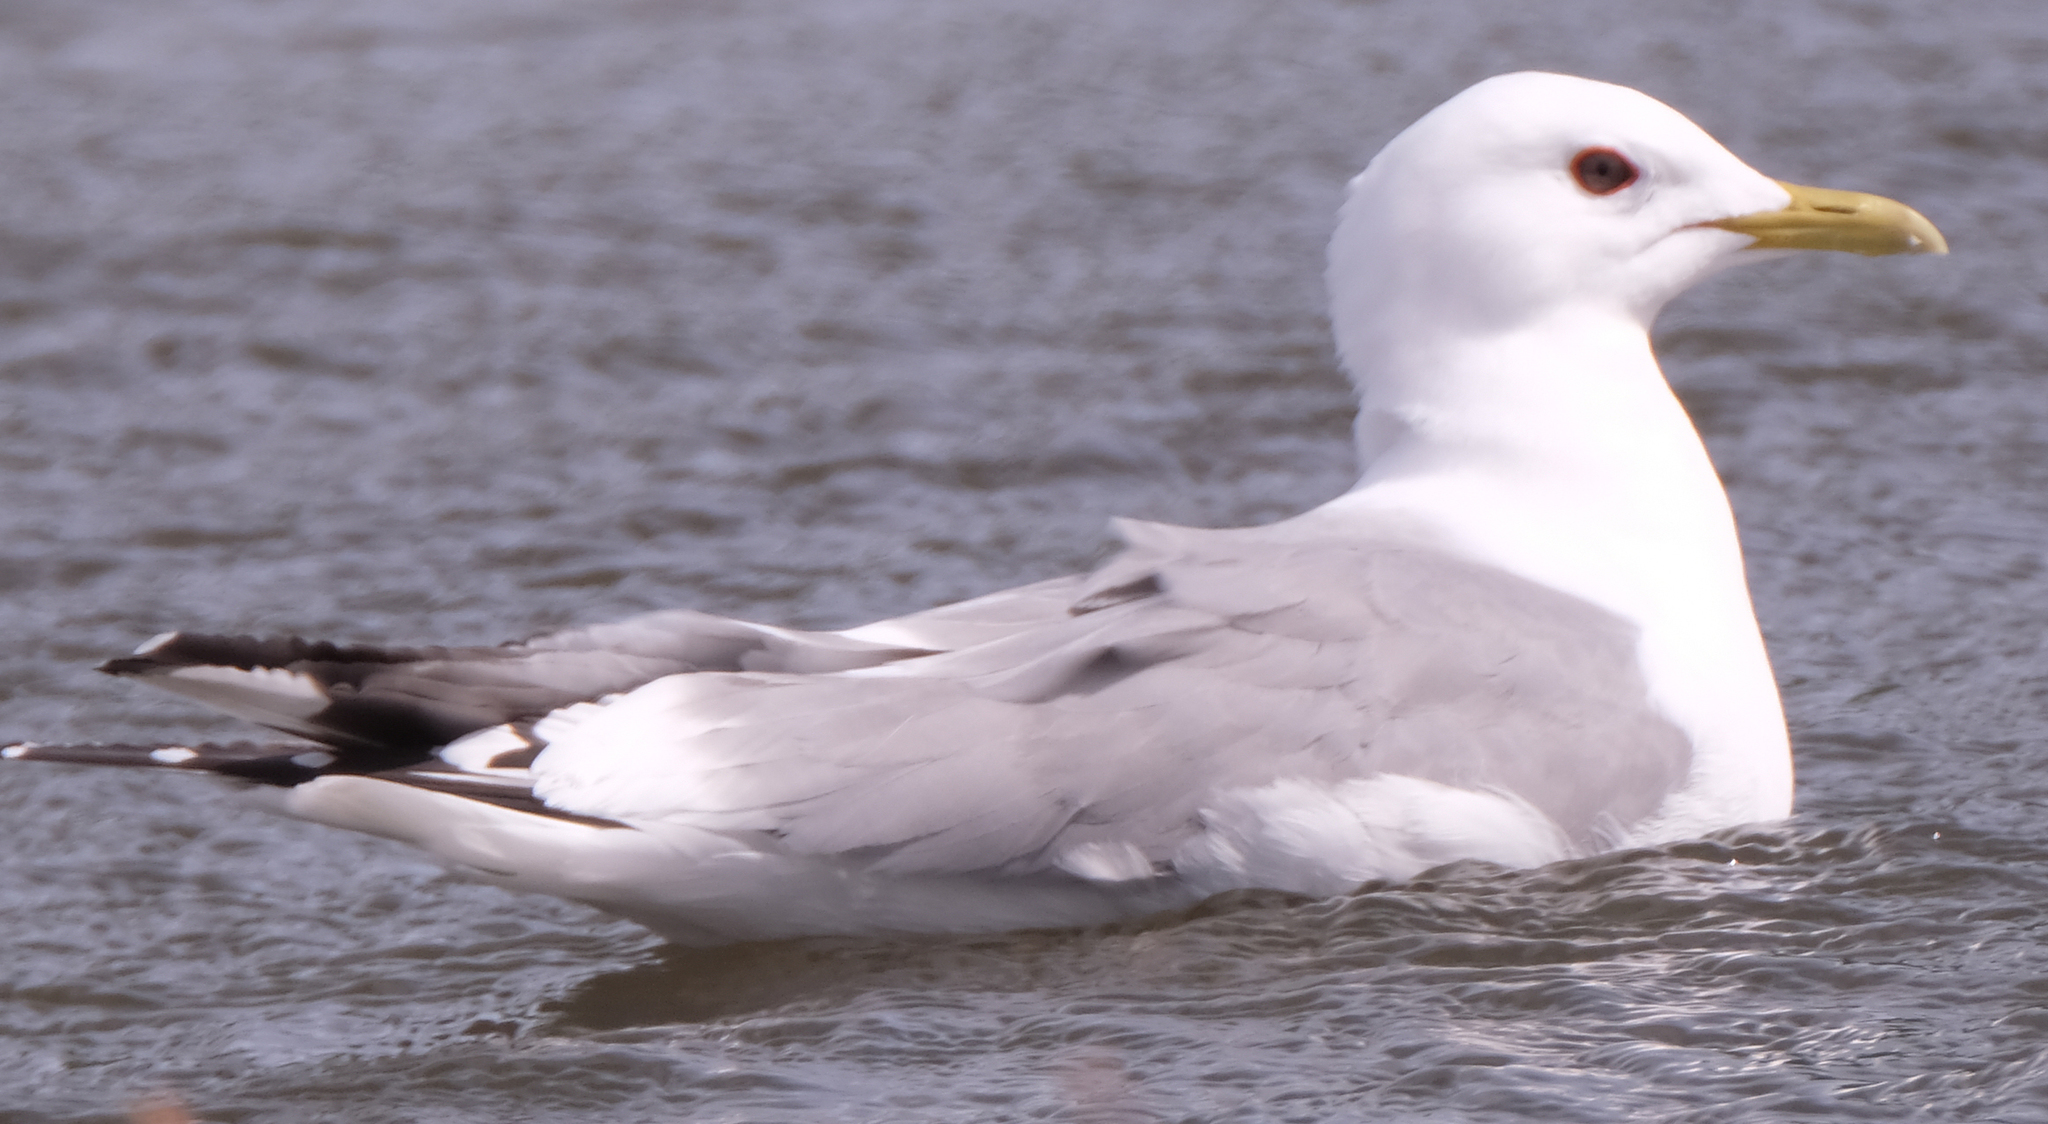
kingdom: Animalia
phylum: Chordata
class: Aves
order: Charadriiformes
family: Laridae
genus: Larus
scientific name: Larus brachyrhynchus
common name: Short-billed gull
